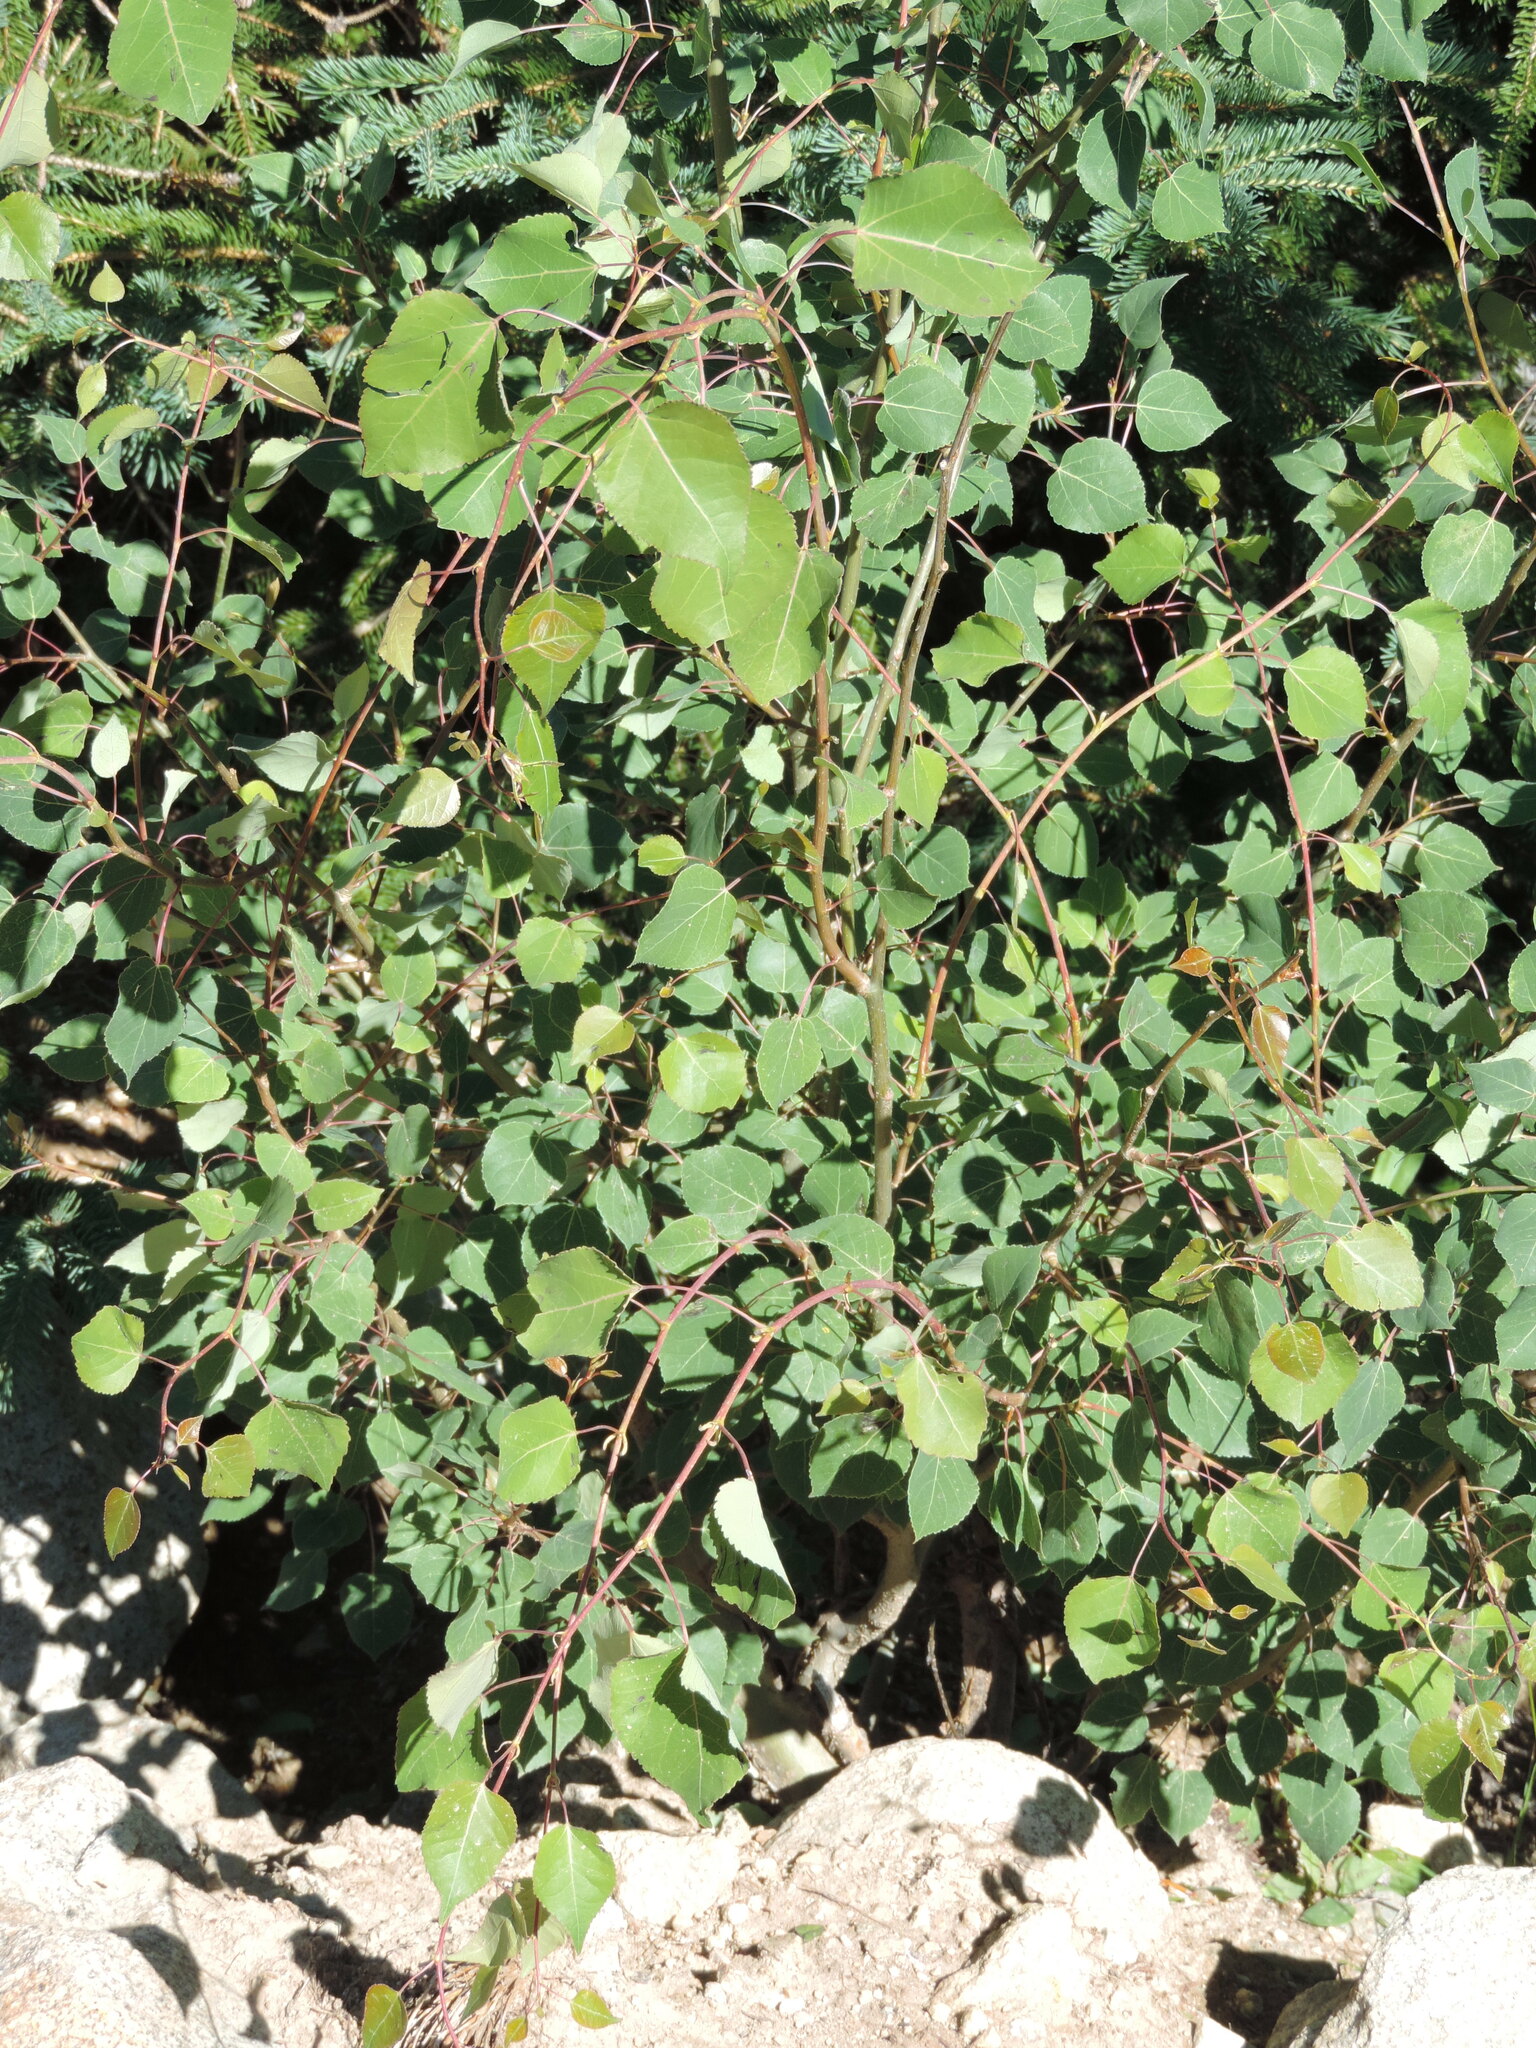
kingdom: Plantae
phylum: Tracheophyta
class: Magnoliopsida
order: Malpighiales
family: Salicaceae
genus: Populus
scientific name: Populus tremuloides
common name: Quaking aspen
